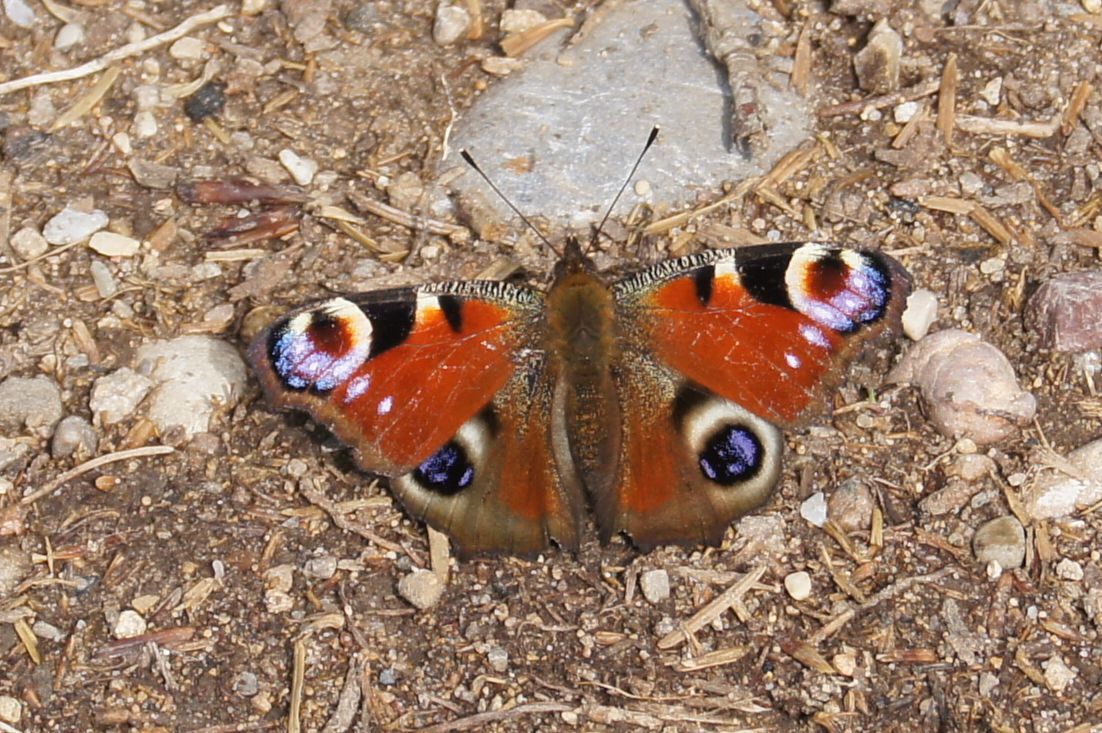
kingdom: Animalia
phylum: Arthropoda
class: Insecta
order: Lepidoptera
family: Nymphalidae
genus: Aglais
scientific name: Aglais io
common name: Peacock
